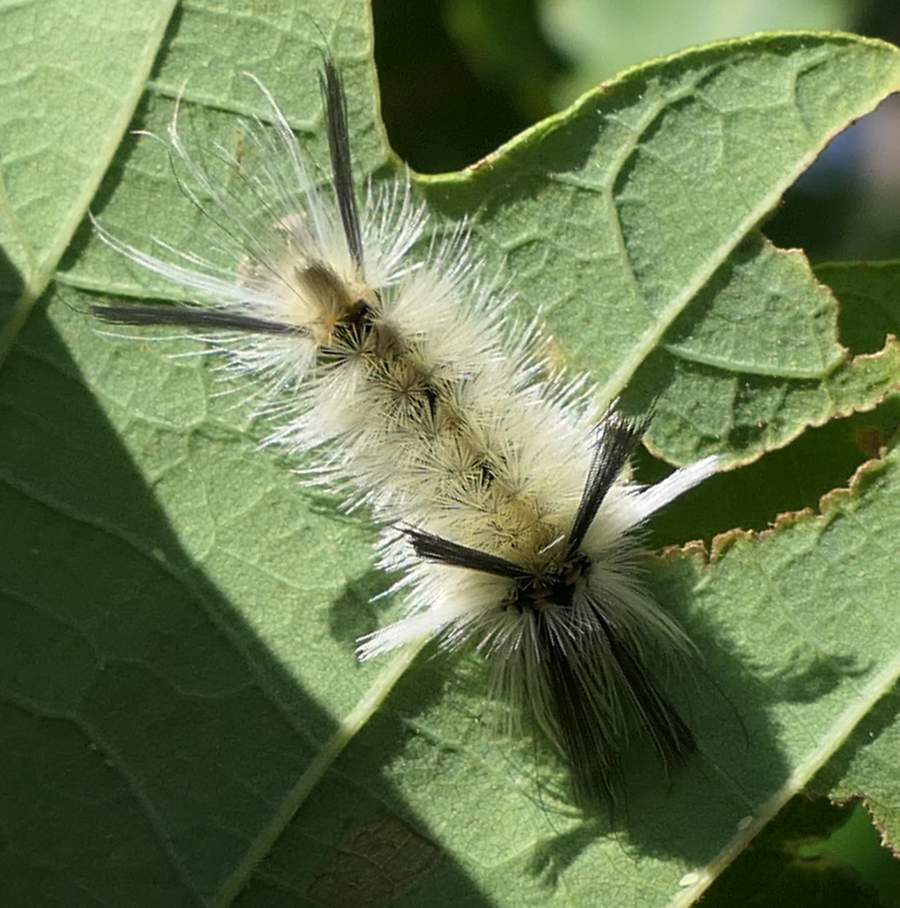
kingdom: Animalia
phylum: Arthropoda
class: Insecta
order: Lepidoptera
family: Erebidae
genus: Halysidota
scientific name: Halysidota tessellaris
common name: Banded tussock moth
